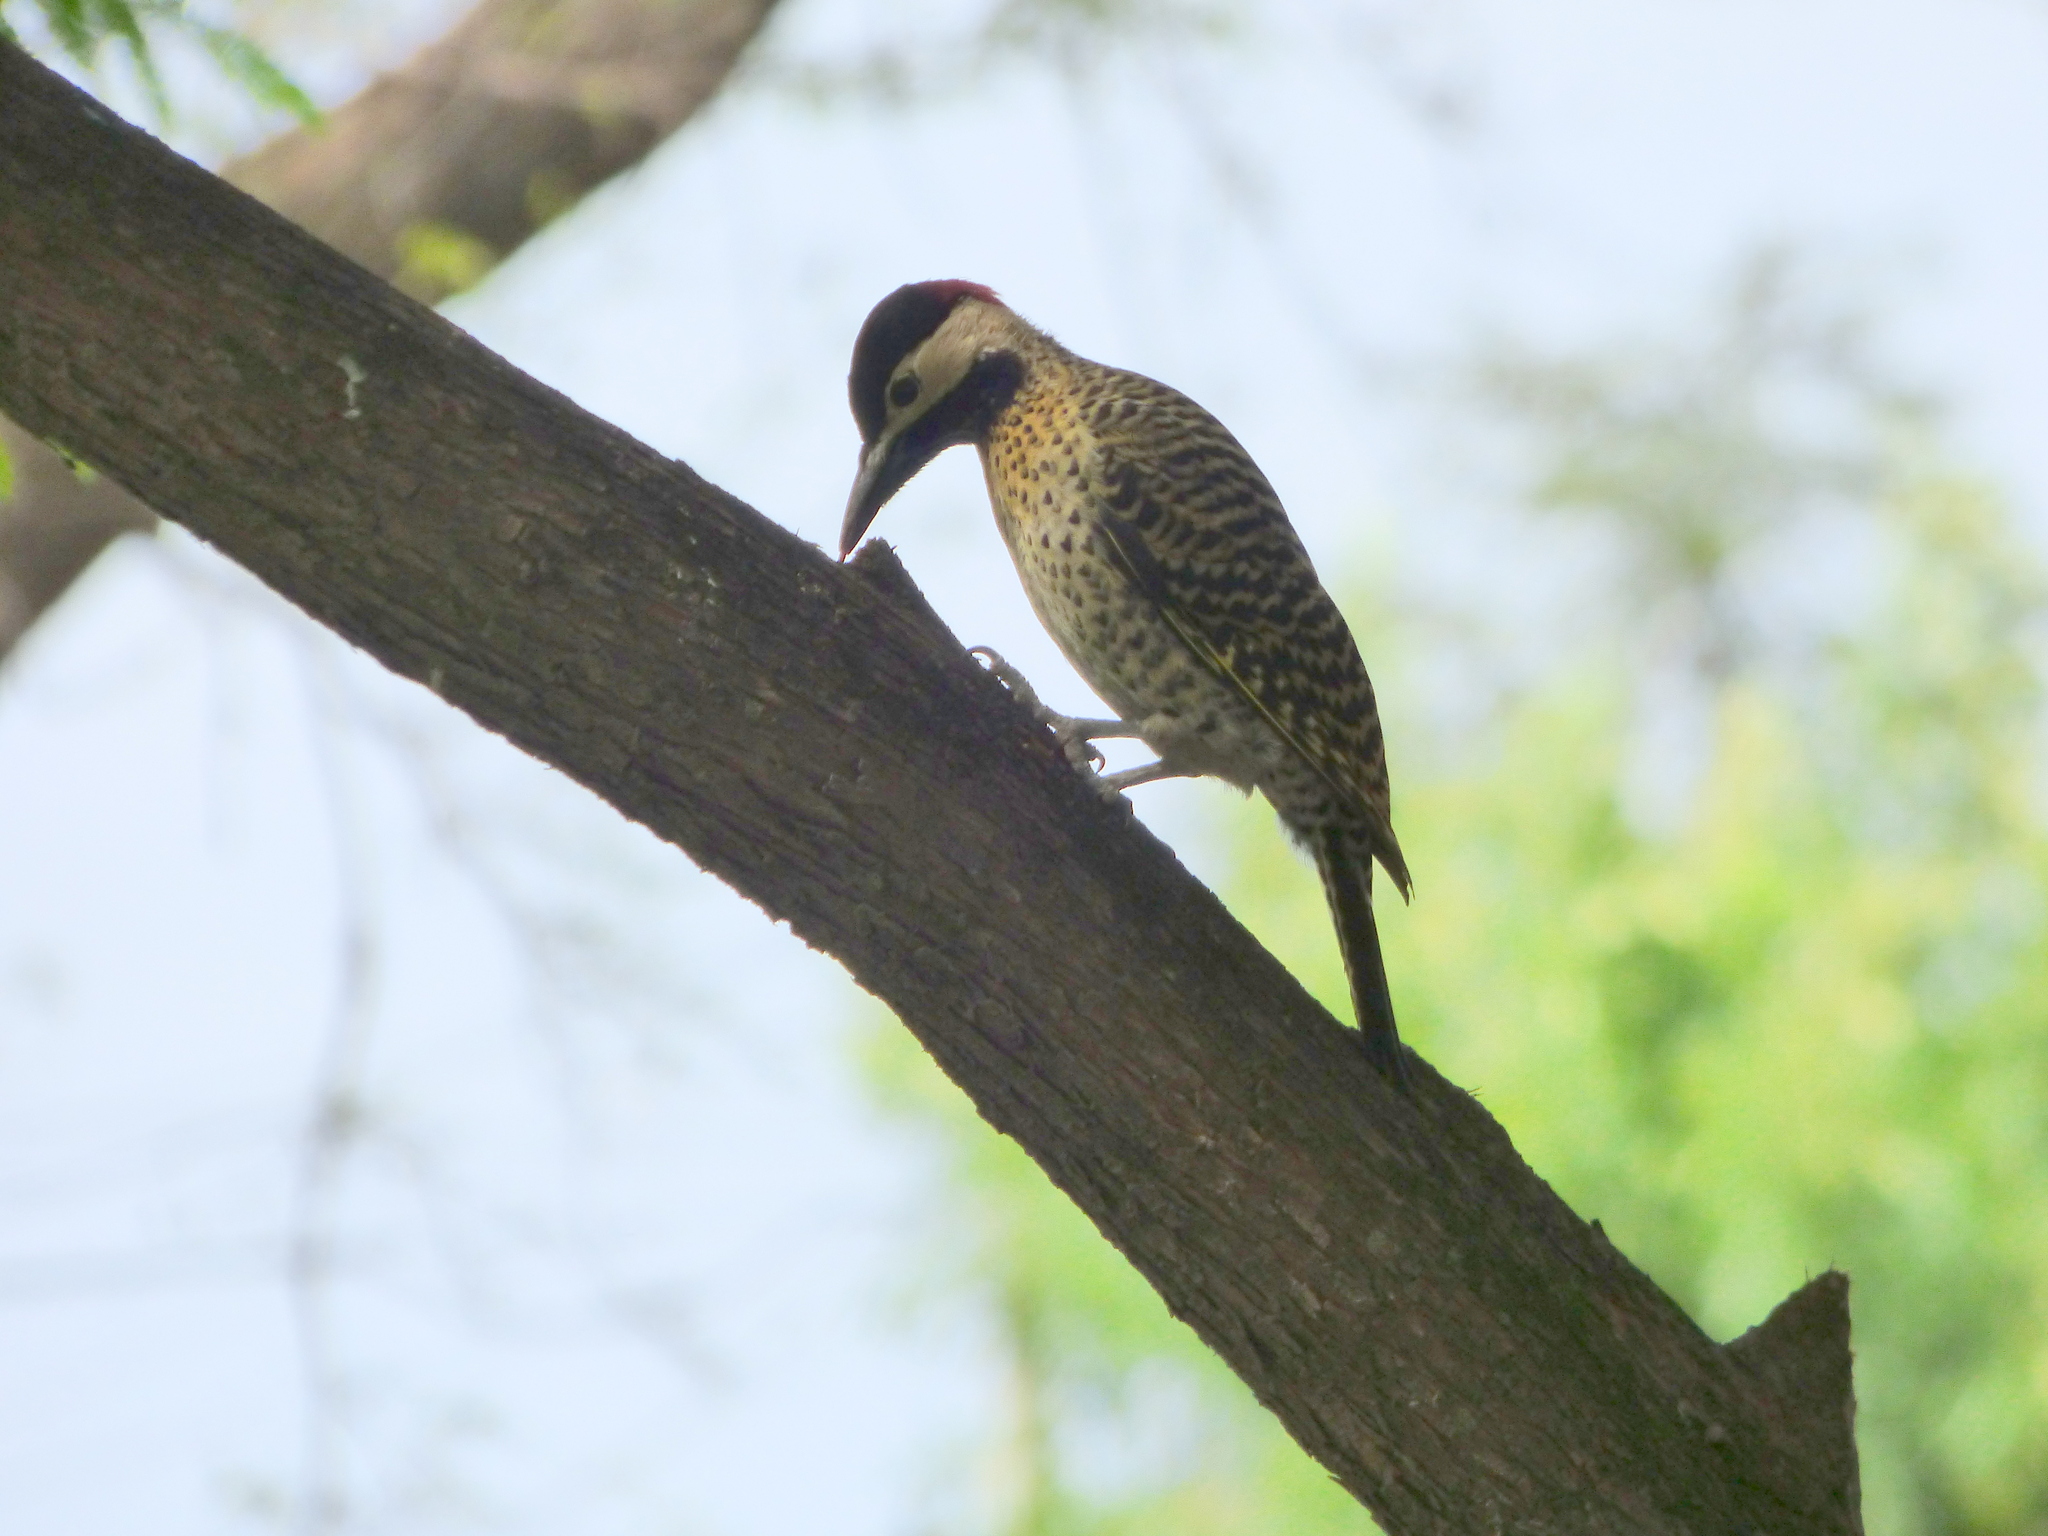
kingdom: Animalia
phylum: Chordata
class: Aves
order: Piciformes
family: Picidae
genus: Colaptes
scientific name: Colaptes melanochloros
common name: Green-barred woodpecker
